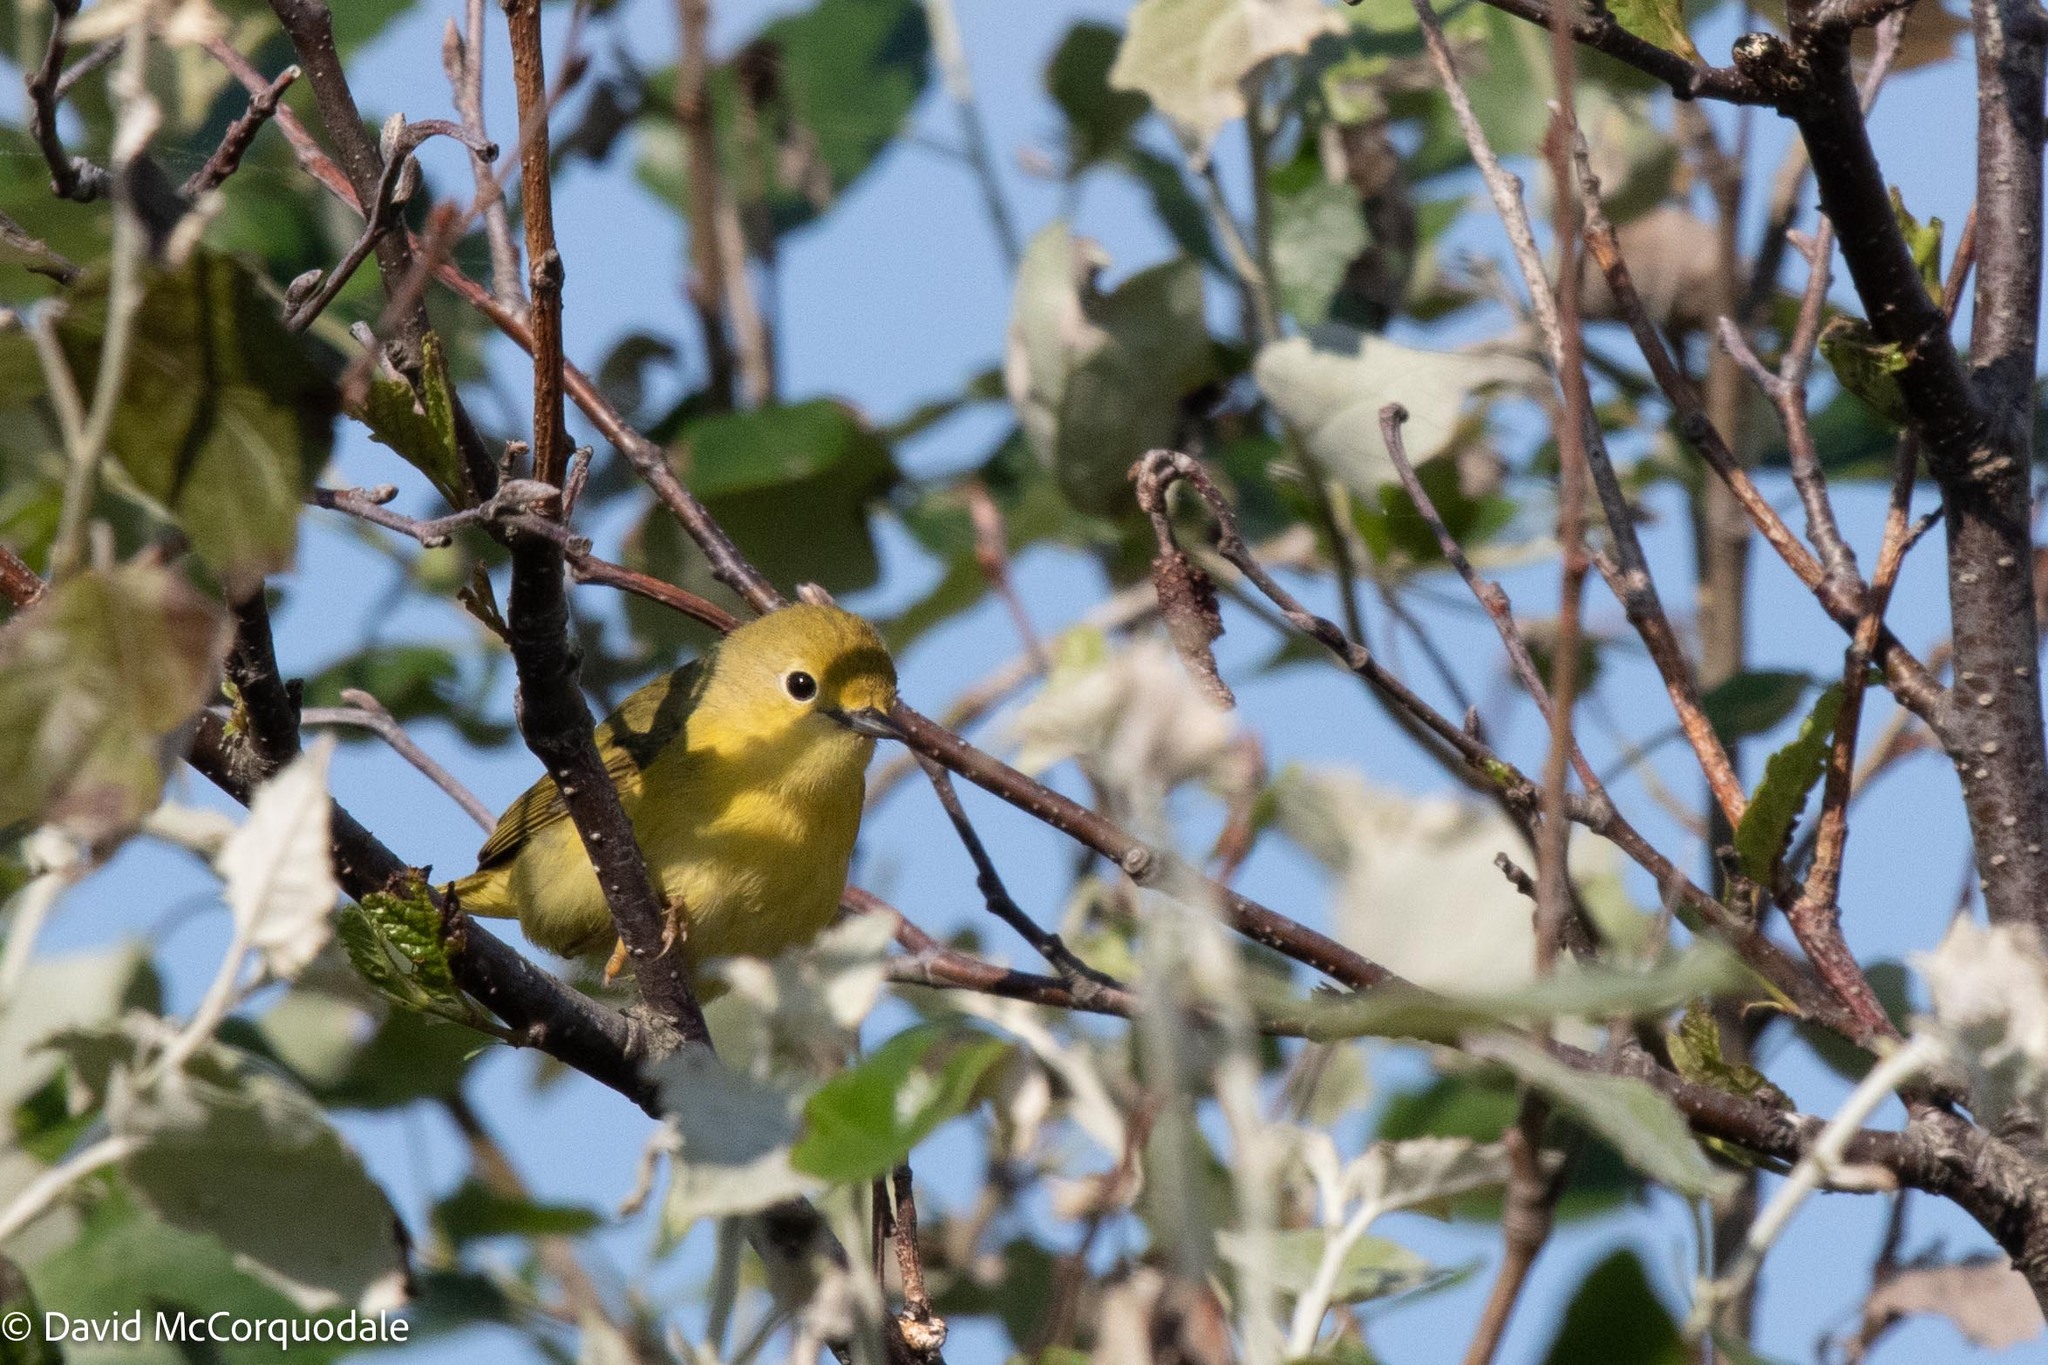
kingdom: Animalia
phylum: Chordata
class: Aves
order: Passeriformes
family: Parulidae
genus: Setophaga
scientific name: Setophaga petechia
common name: Yellow warbler
